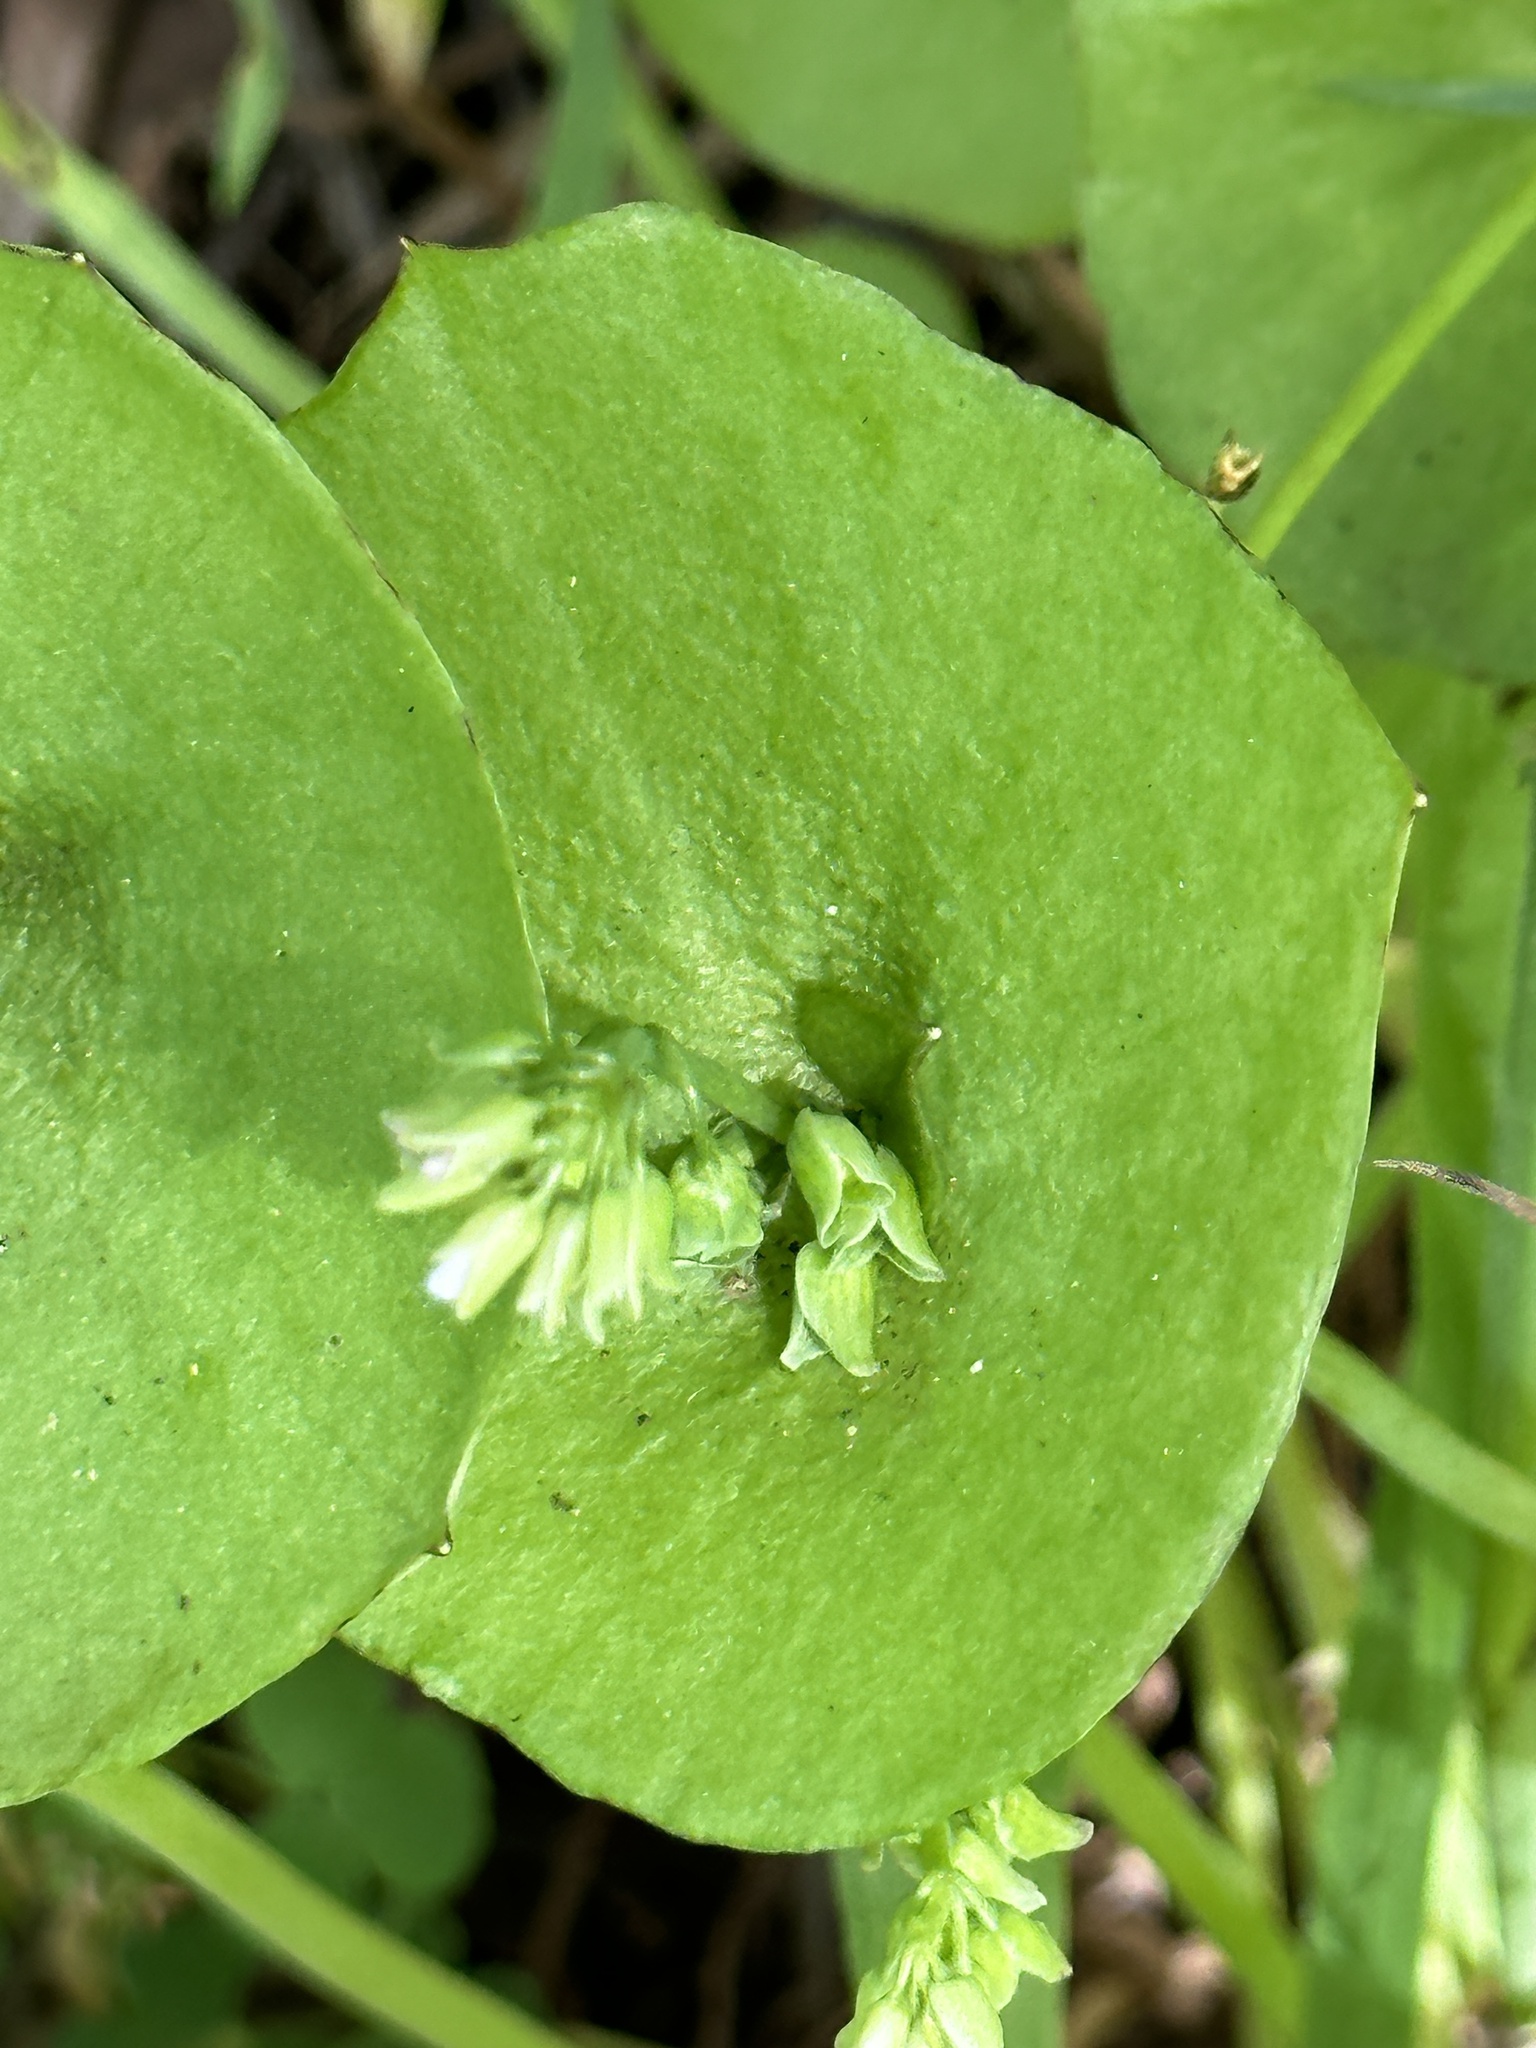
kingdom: Plantae
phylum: Tracheophyta
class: Magnoliopsida
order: Caryophyllales
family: Montiaceae
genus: Claytonia
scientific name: Claytonia perfoliata
